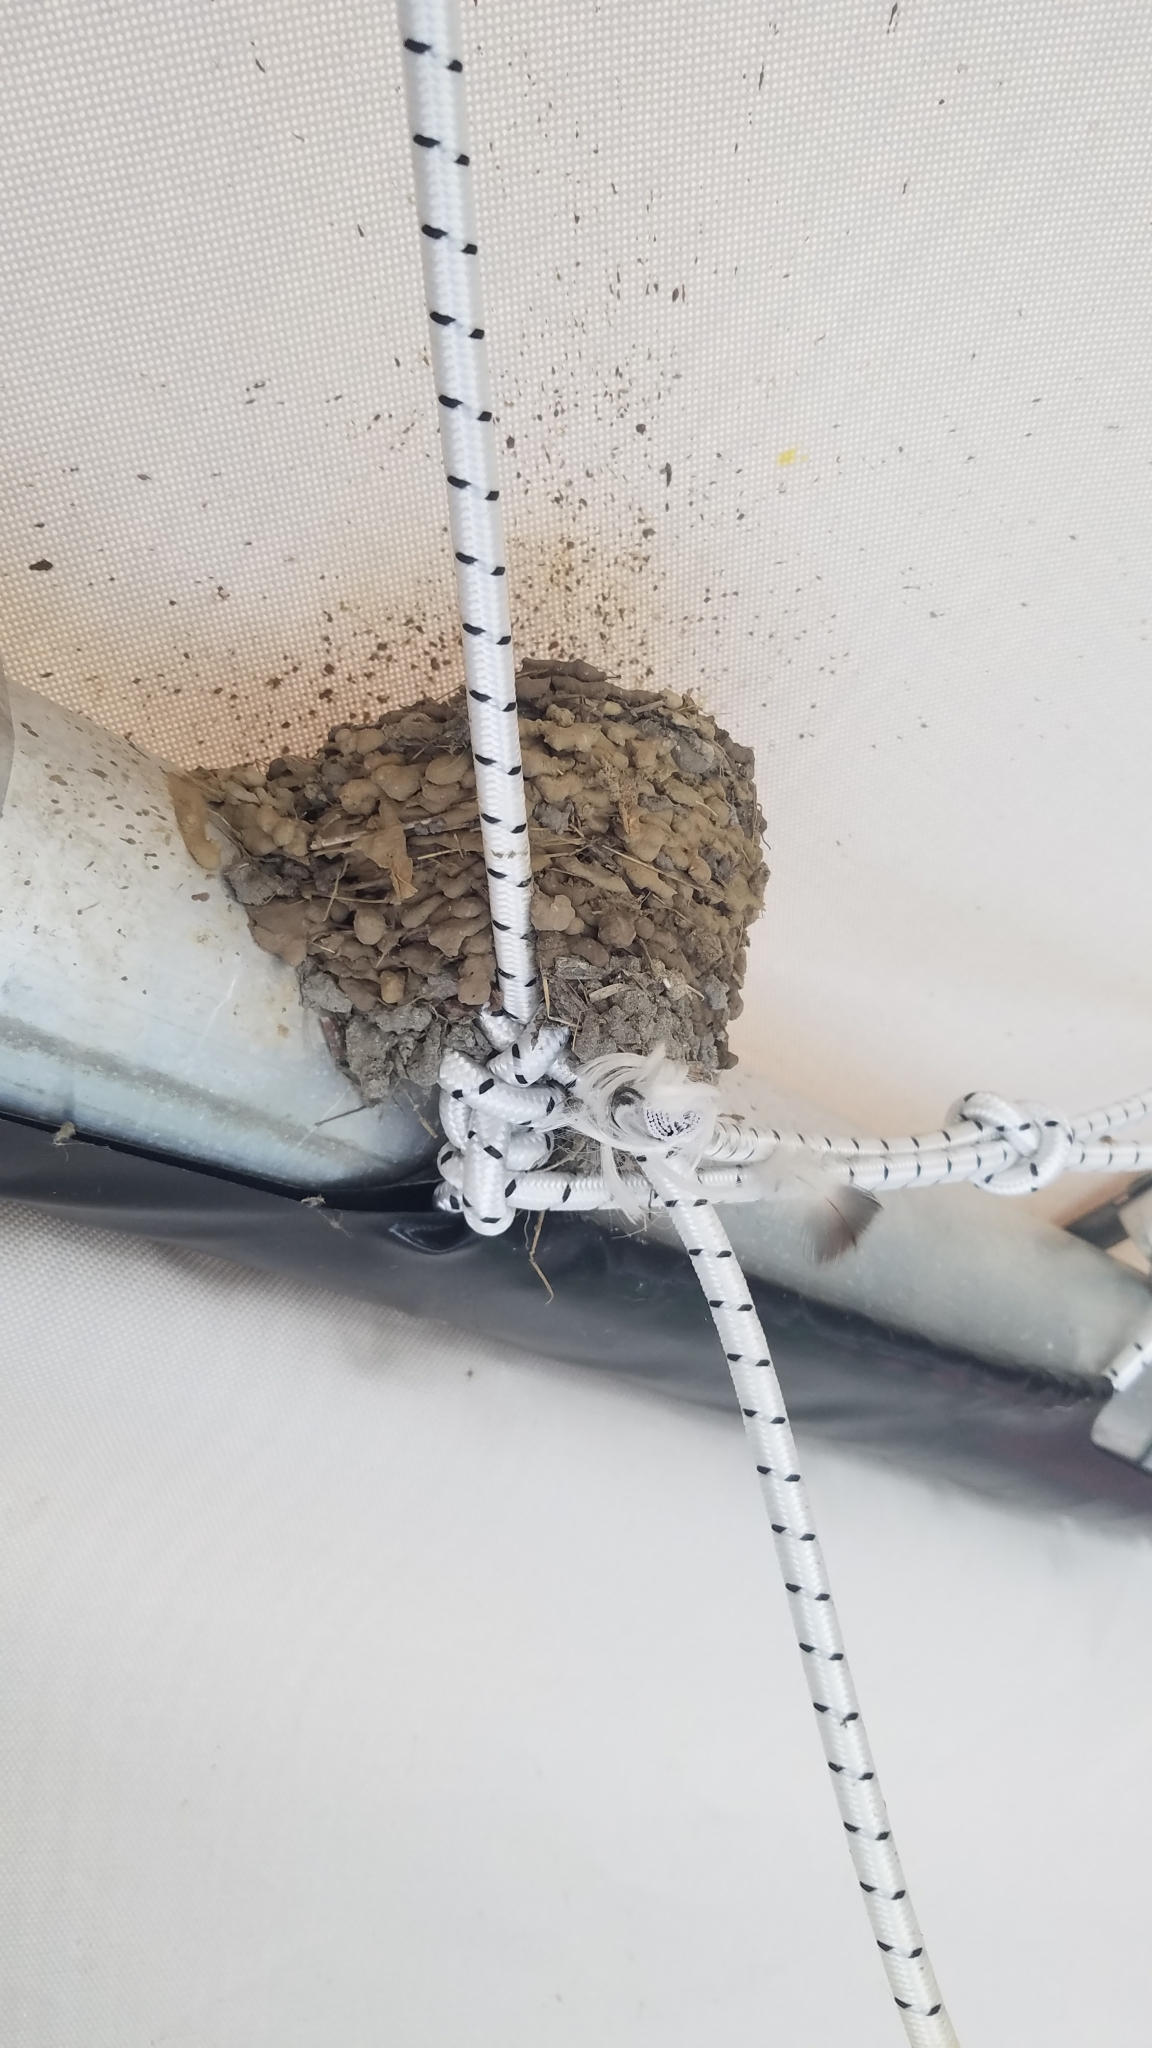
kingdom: Animalia
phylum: Chordata
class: Aves
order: Passeriformes
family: Hirundinidae
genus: Hirundo
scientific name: Hirundo rustica
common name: Barn swallow
